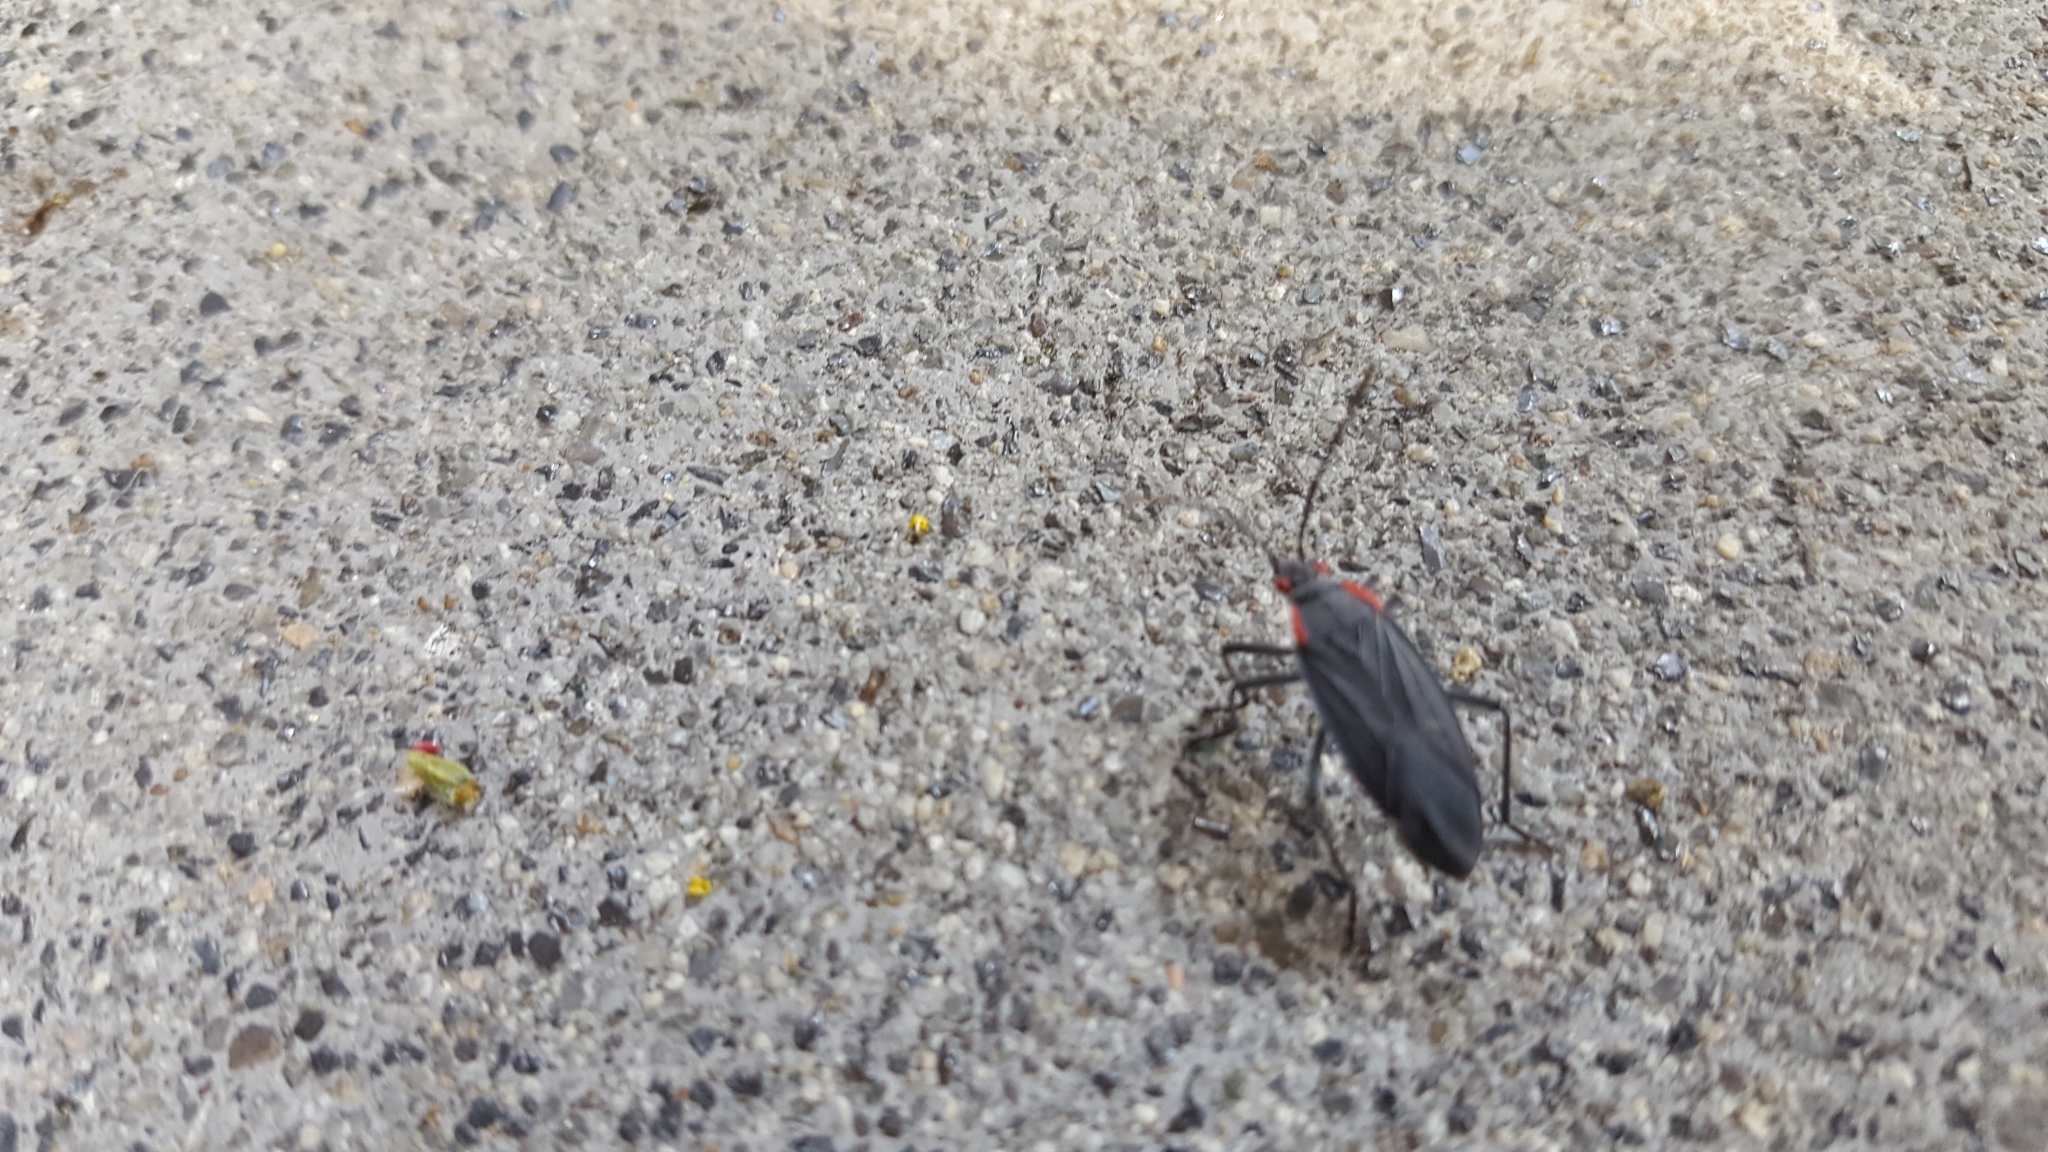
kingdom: Animalia
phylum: Arthropoda
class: Insecta
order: Hemiptera
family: Rhopalidae
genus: Jadera
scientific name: Jadera haematoloma
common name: Red-shouldered bug
